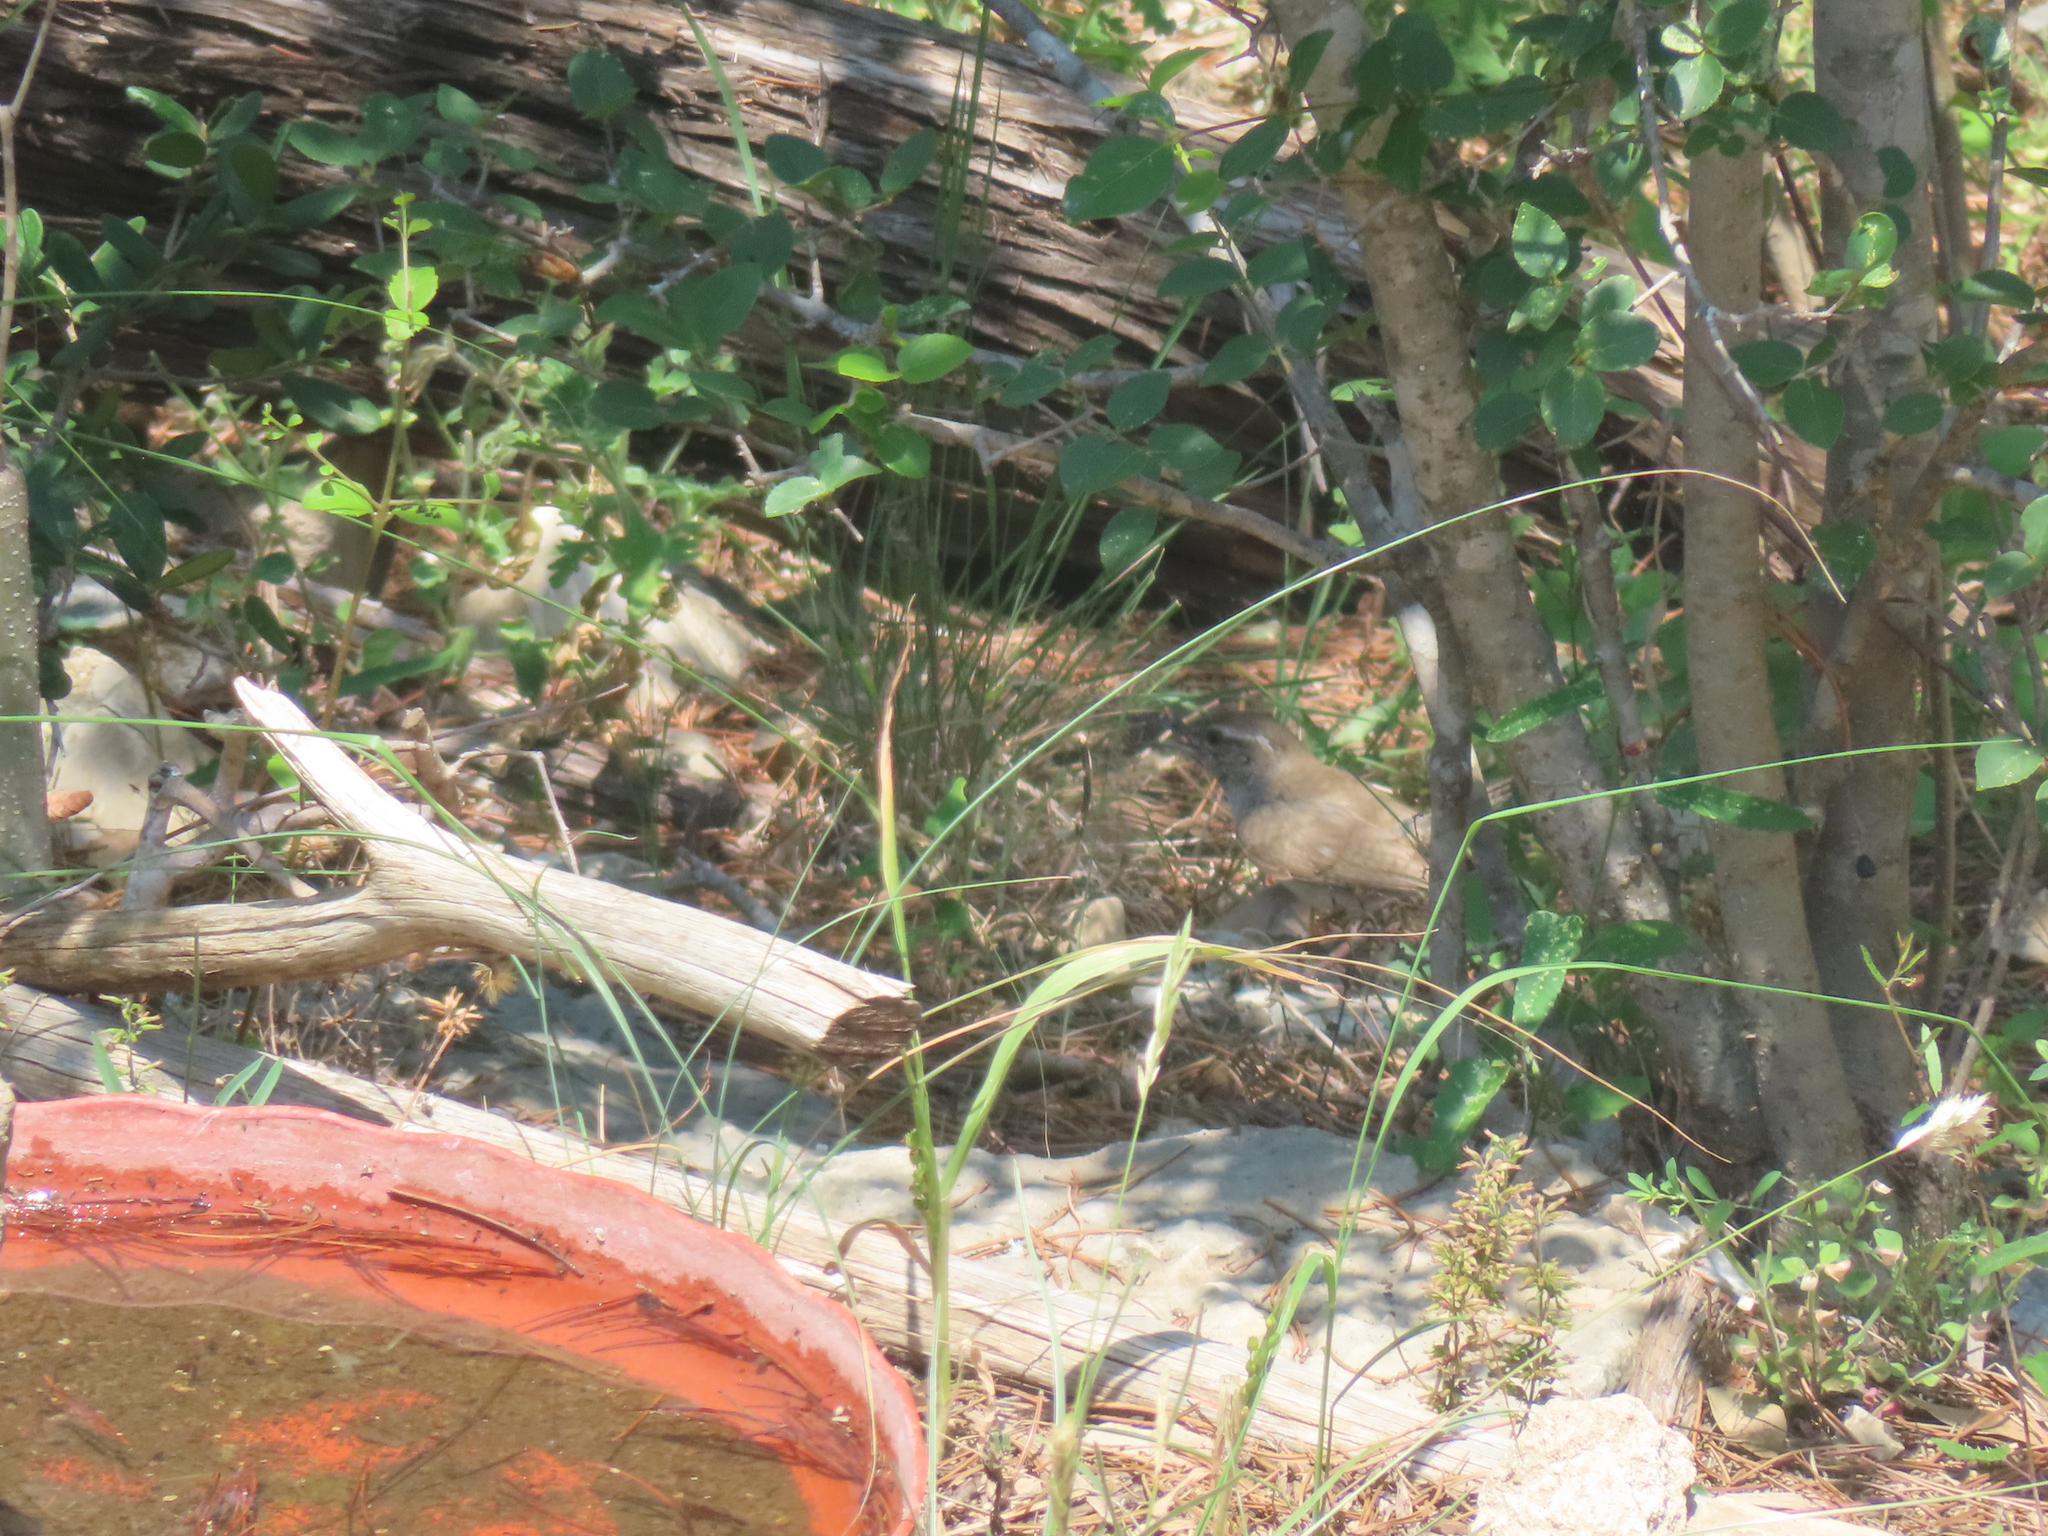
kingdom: Animalia
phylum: Chordata
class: Aves
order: Passeriformes
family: Troglodytidae
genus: Thryomanes
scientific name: Thryomanes bewickii
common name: Bewick's wren
